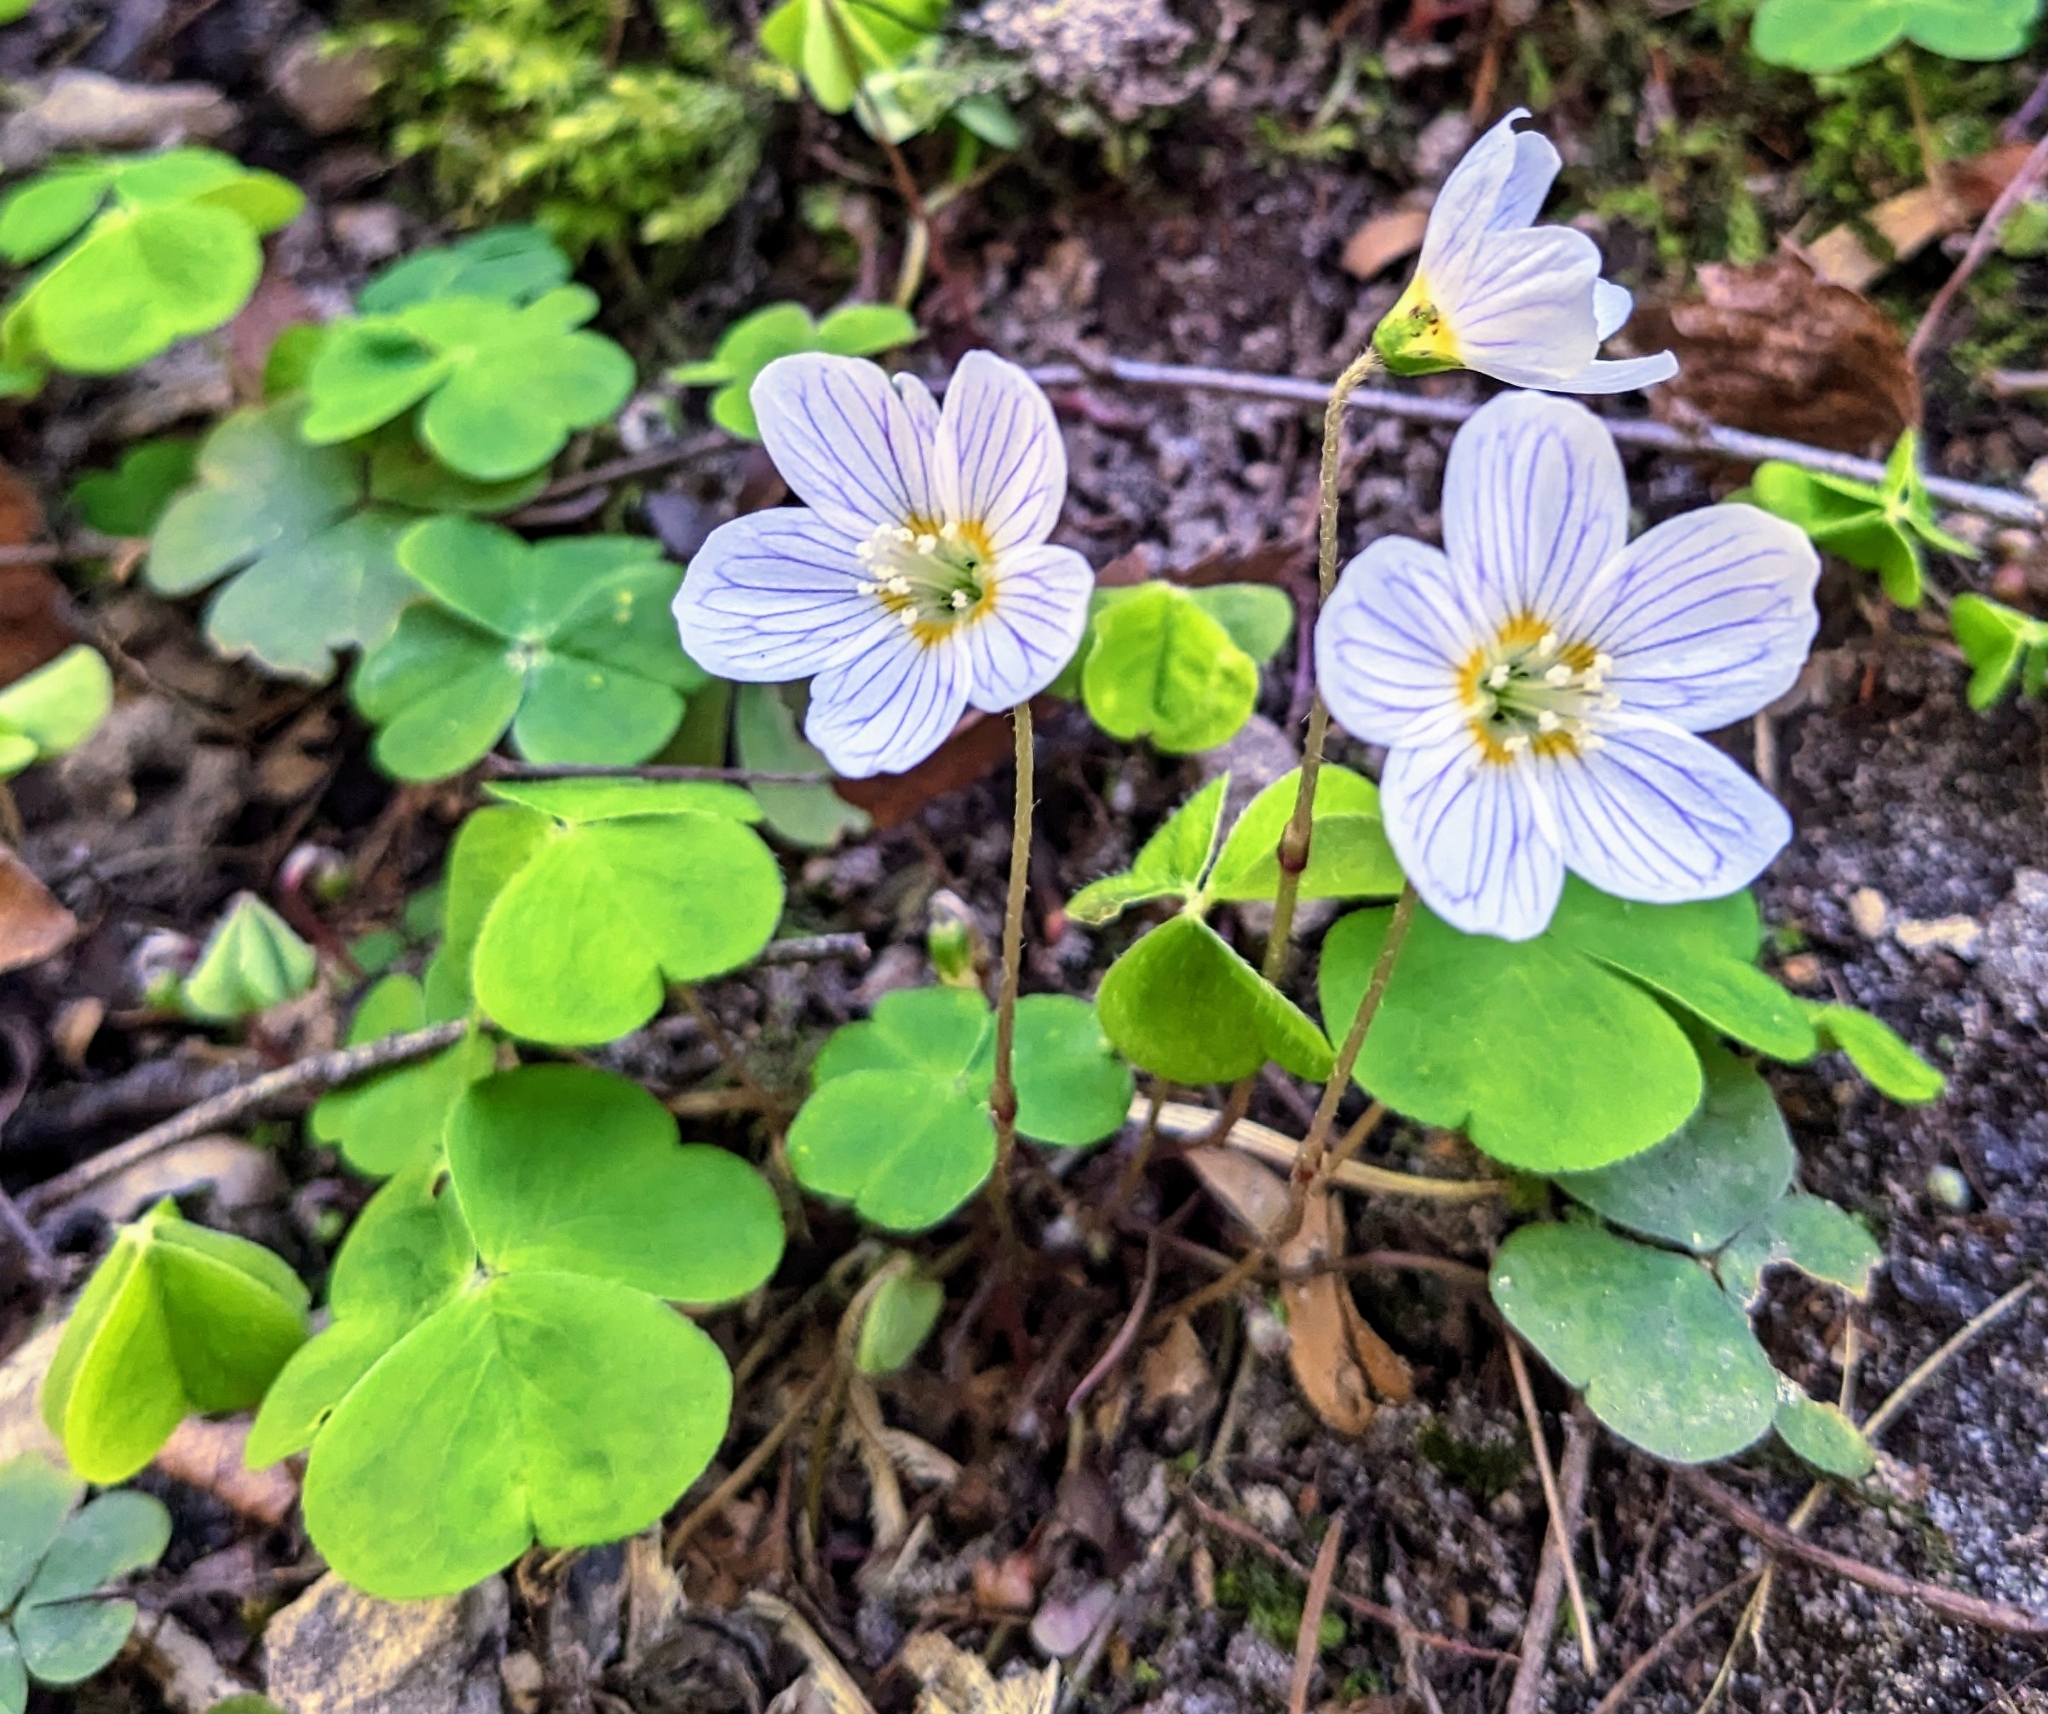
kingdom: Plantae
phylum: Tracheophyta
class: Magnoliopsida
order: Oxalidales
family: Oxalidaceae
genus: Oxalis
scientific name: Oxalis acetosella
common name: Wood-sorrel
